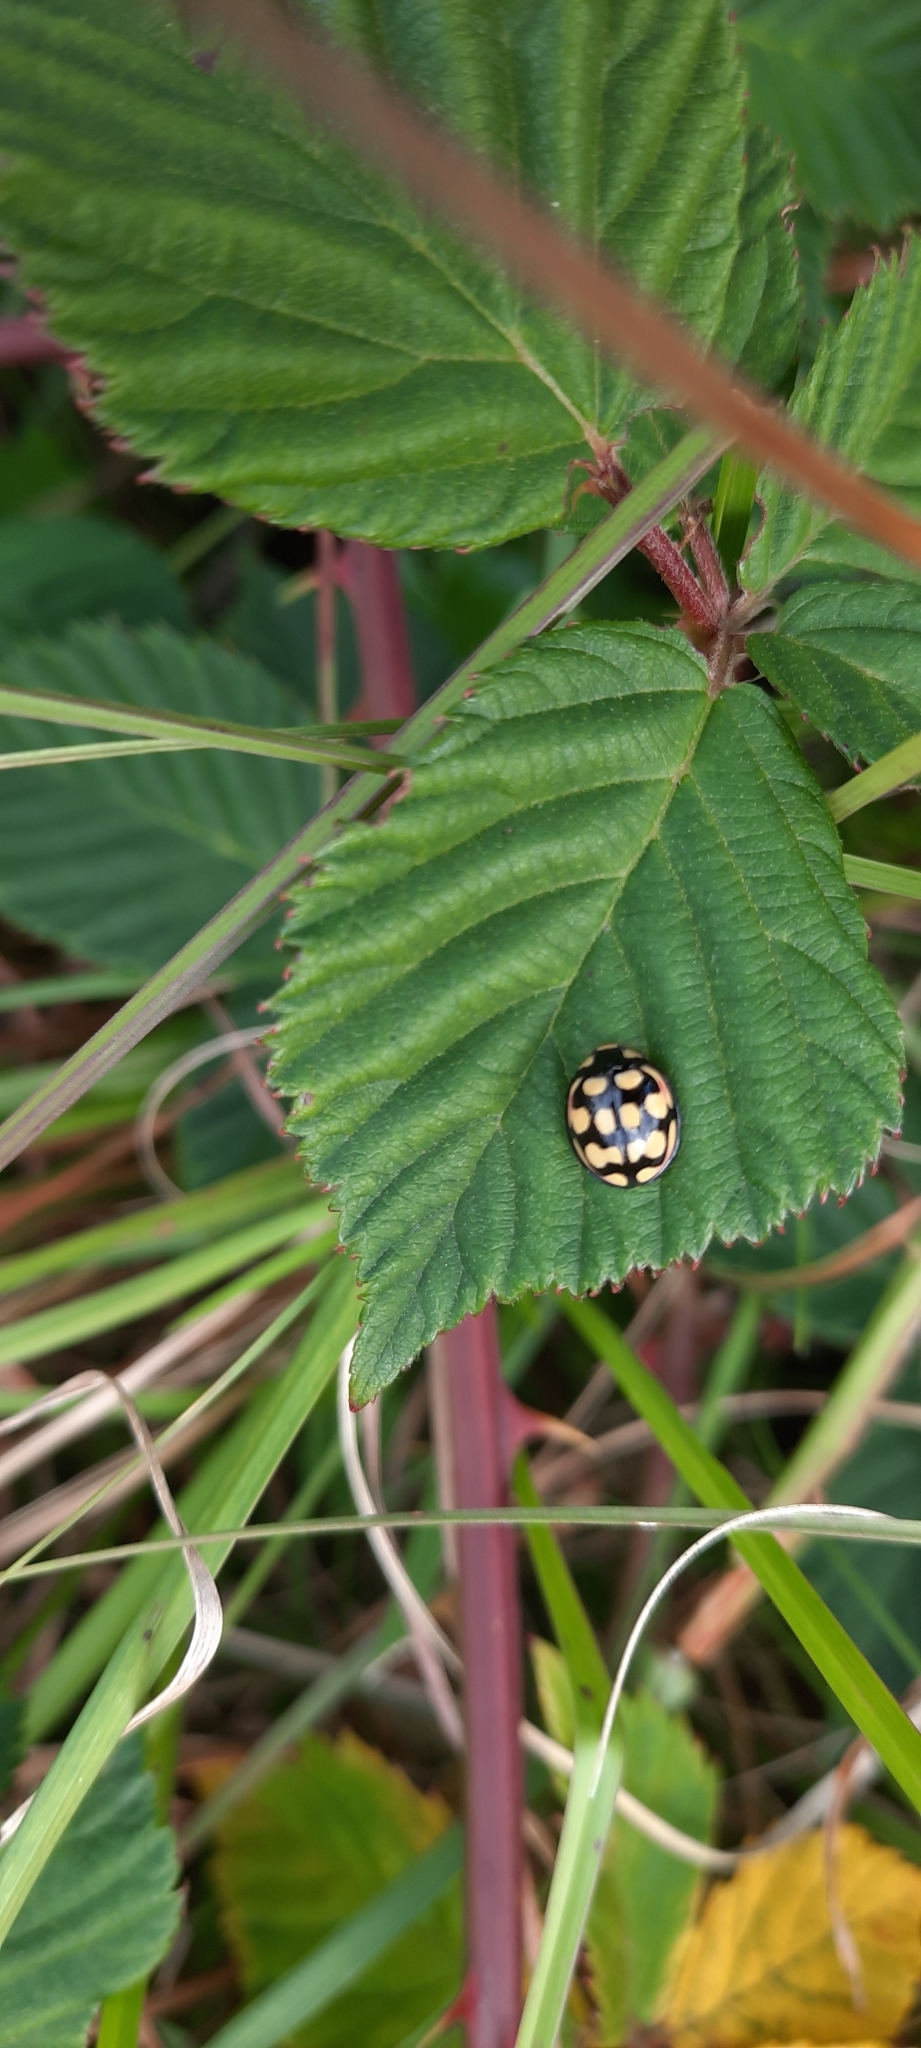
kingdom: Animalia
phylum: Arthropoda
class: Insecta
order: Coleoptera
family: Coccinellidae
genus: Cheilomenes
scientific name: Cheilomenes sulphurea
